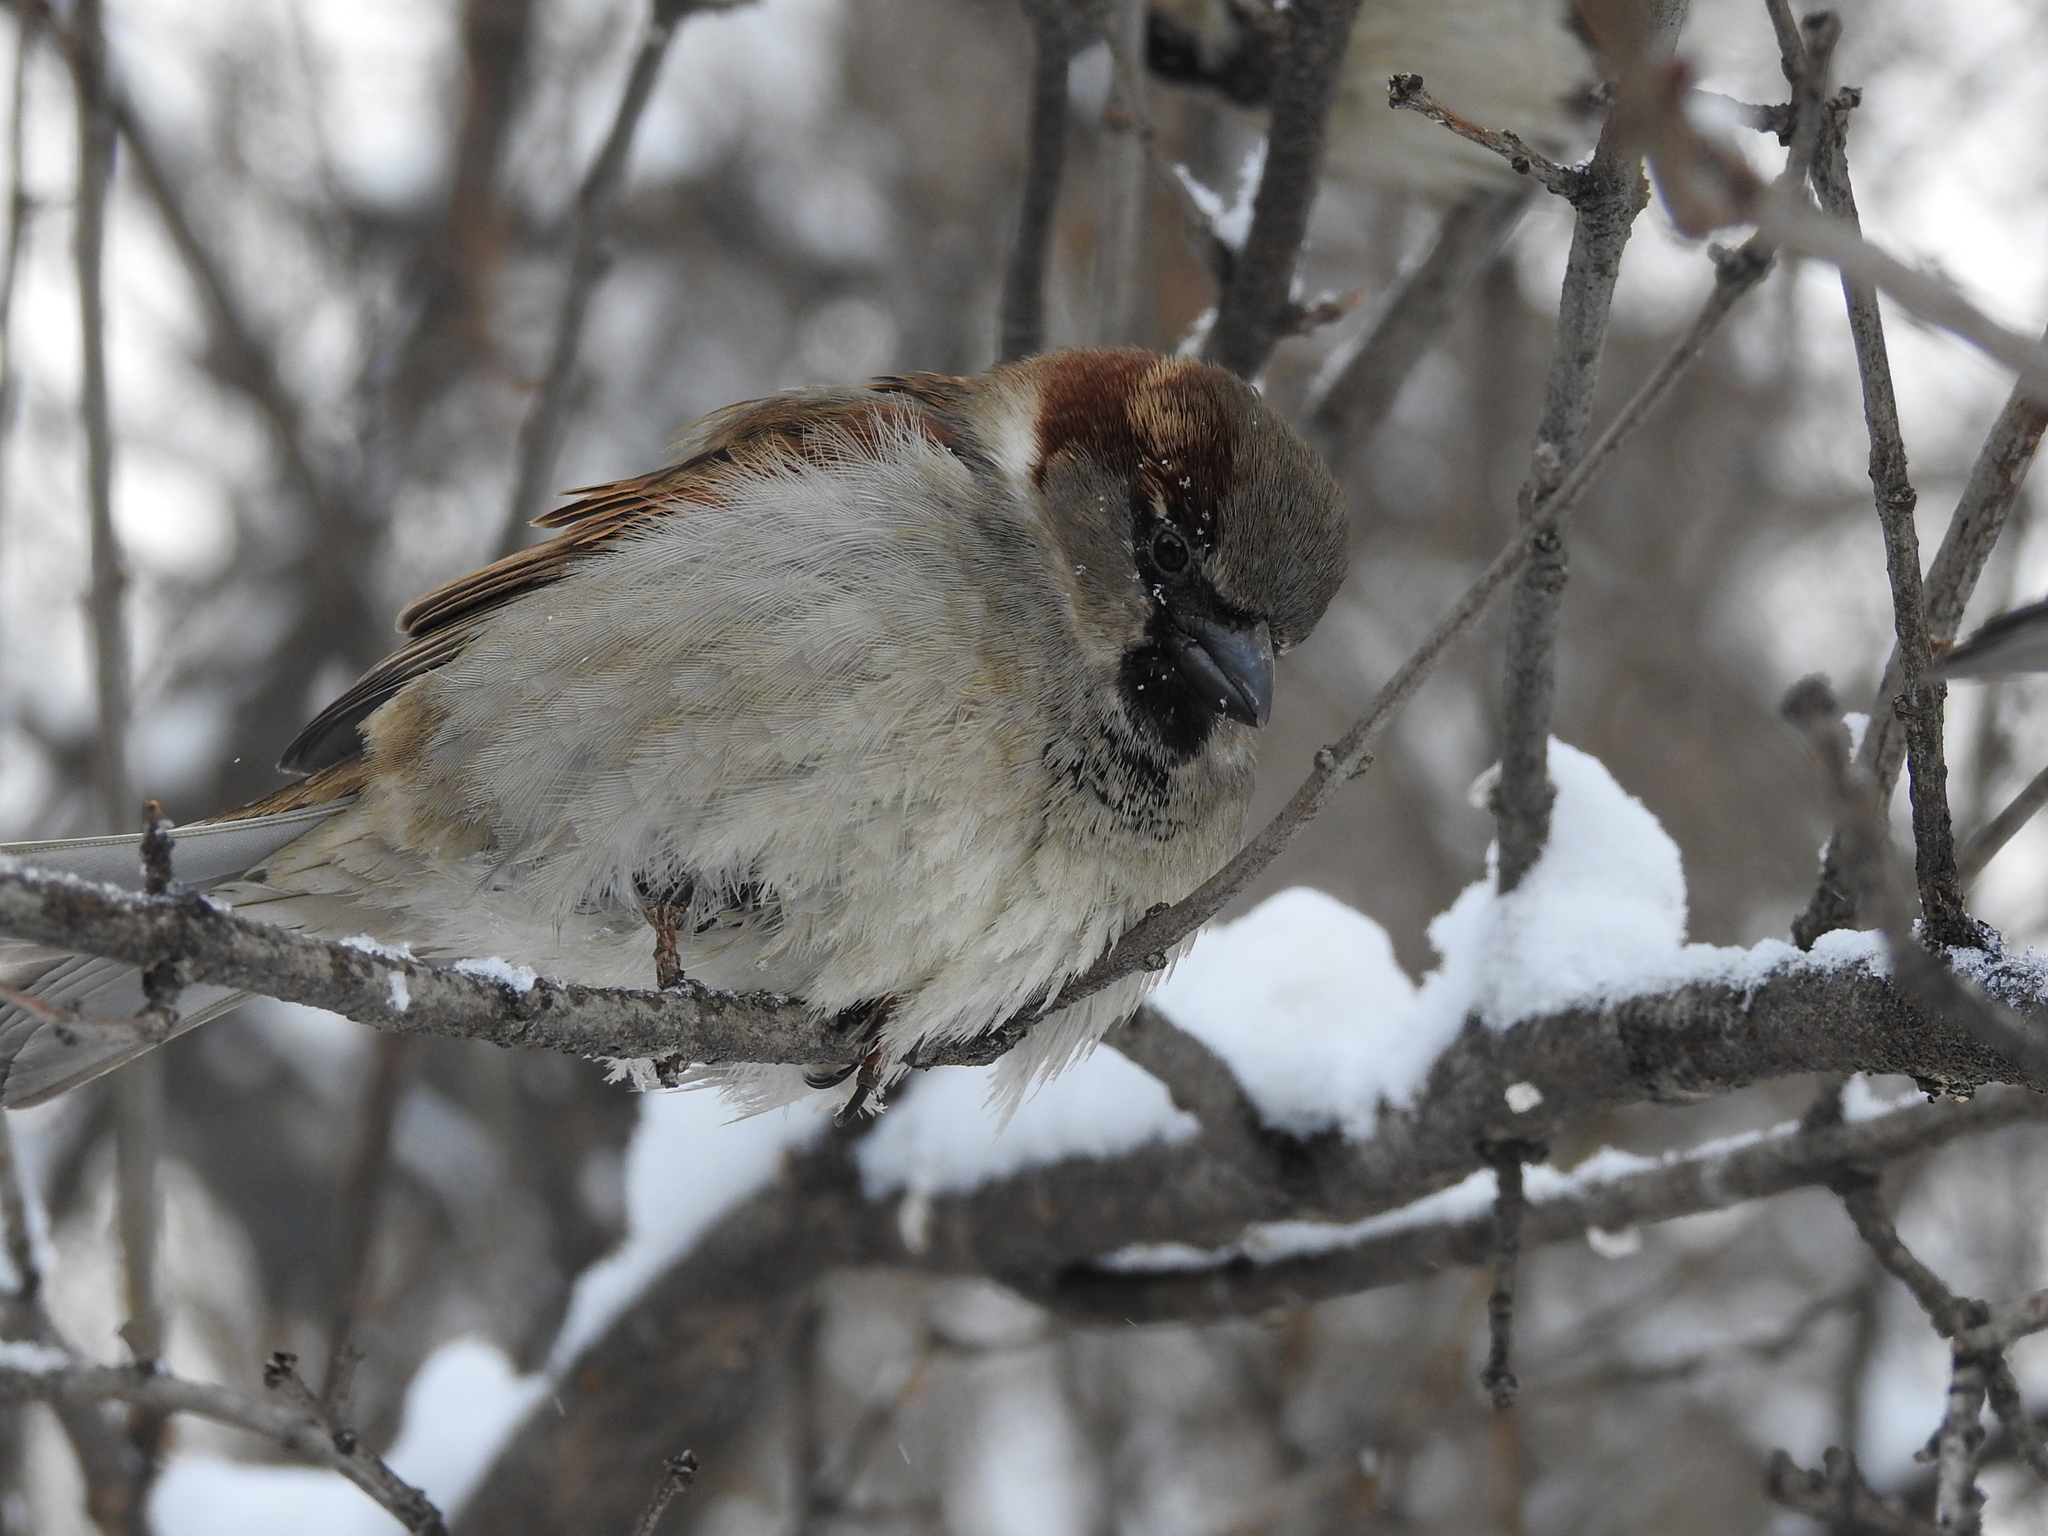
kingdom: Animalia
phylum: Chordata
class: Aves
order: Passeriformes
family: Passeridae
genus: Passer
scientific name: Passer domesticus
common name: House sparrow
